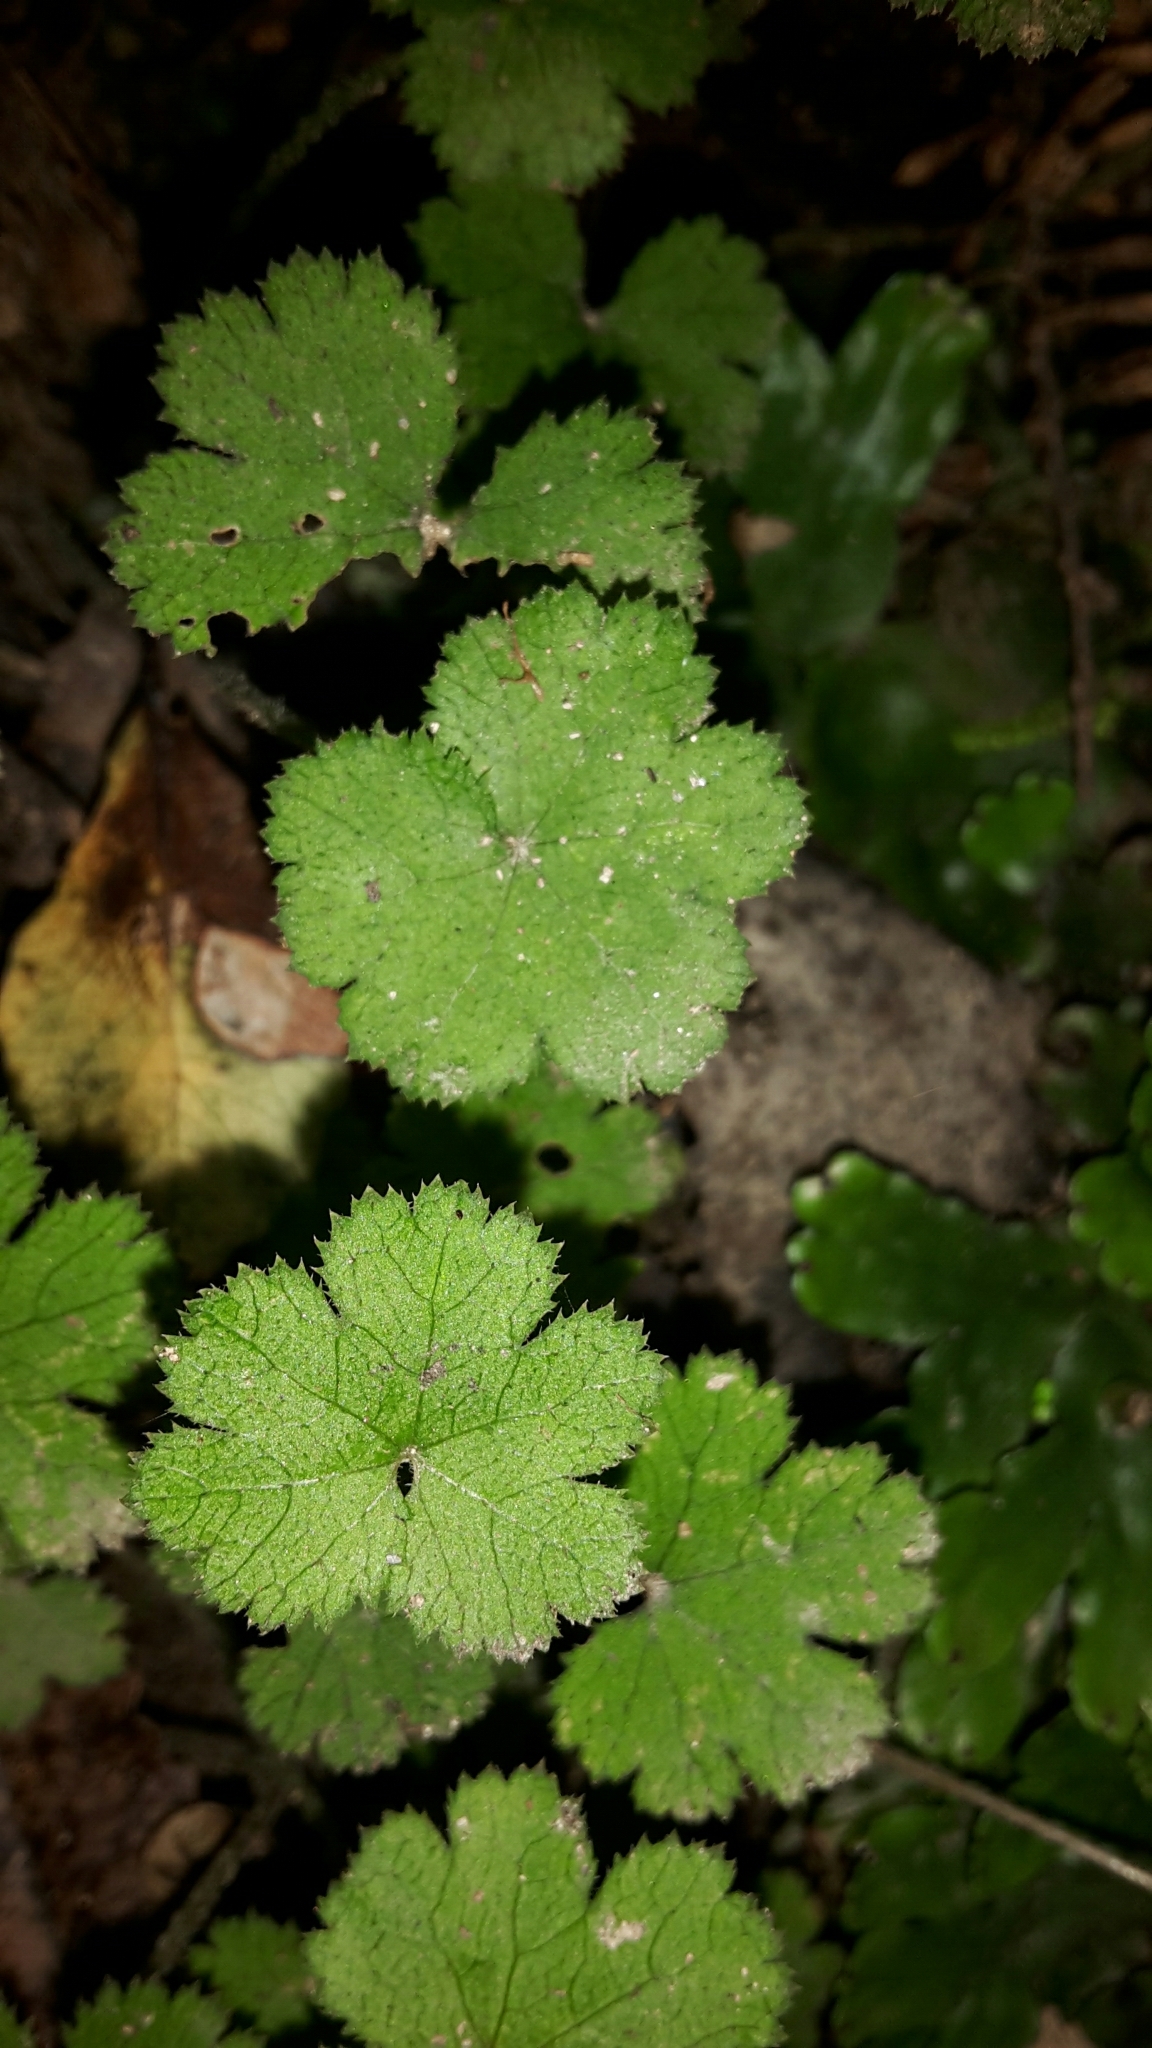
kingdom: Plantae
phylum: Tracheophyta
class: Magnoliopsida
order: Apiales
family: Araliaceae
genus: Hydrocotyle
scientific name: Hydrocotyle elongata
